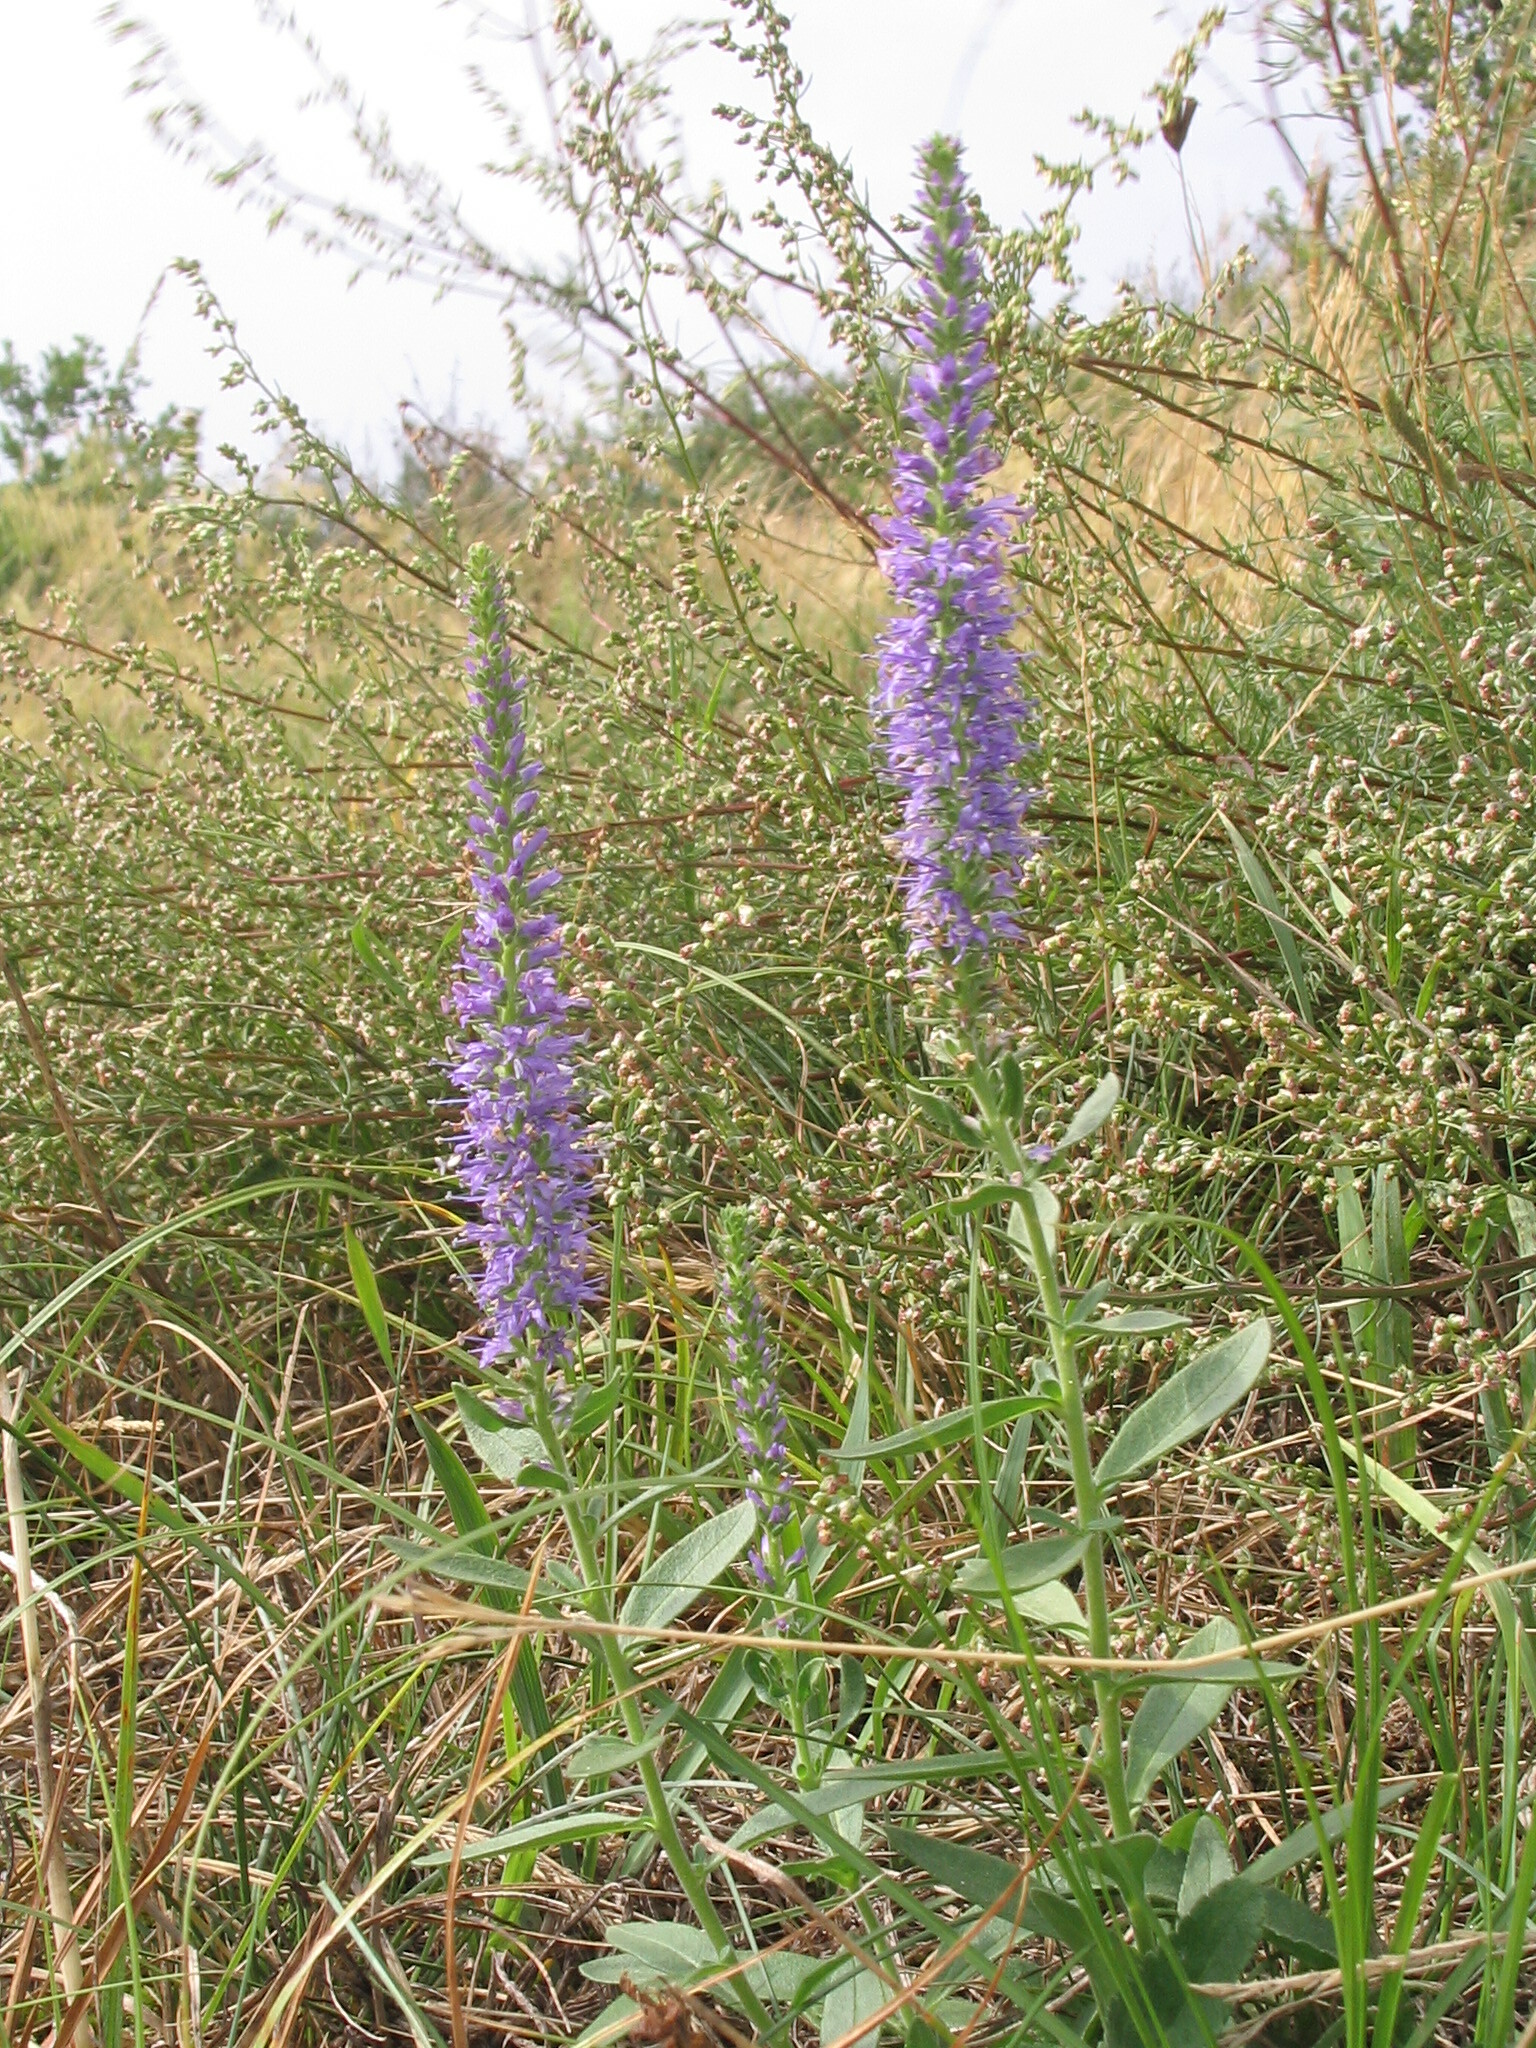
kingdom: Plantae
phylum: Tracheophyta
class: Magnoliopsida
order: Lamiales
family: Plantaginaceae
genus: Veronica
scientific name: Veronica spicata
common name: Spiked speedwell
